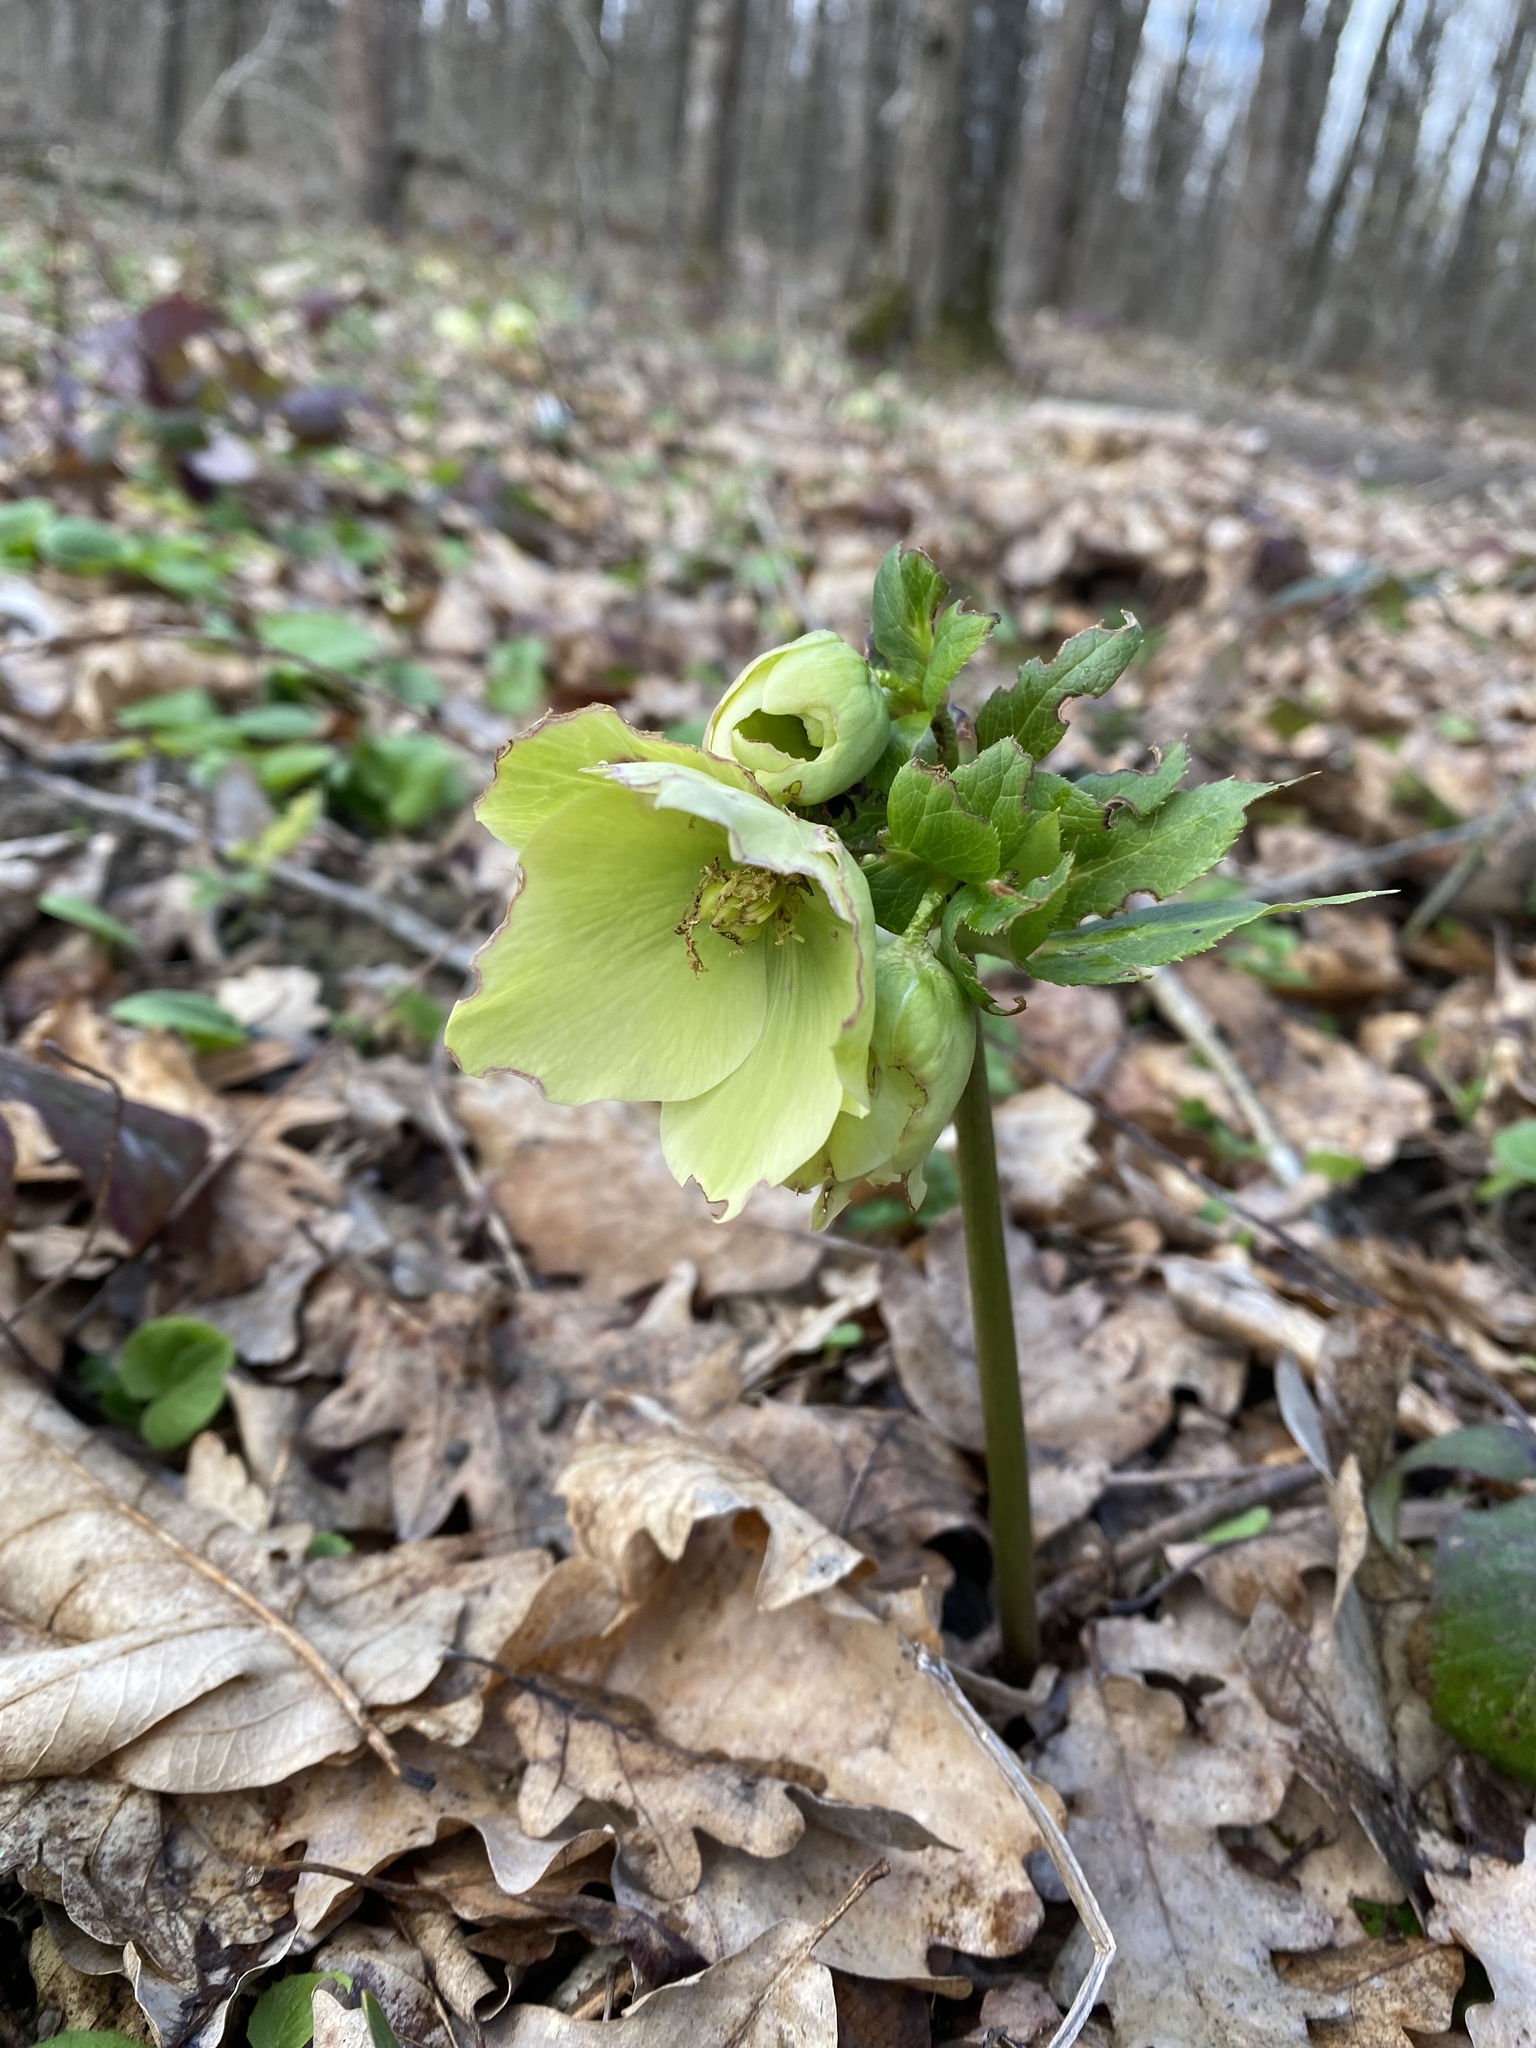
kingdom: Plantae
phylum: Tracheophyta
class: Magnoliopsida
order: Ranunculales
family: Ranunculaceae
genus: Helleborus
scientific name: Helleborus orientalis
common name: Lenten-rose
